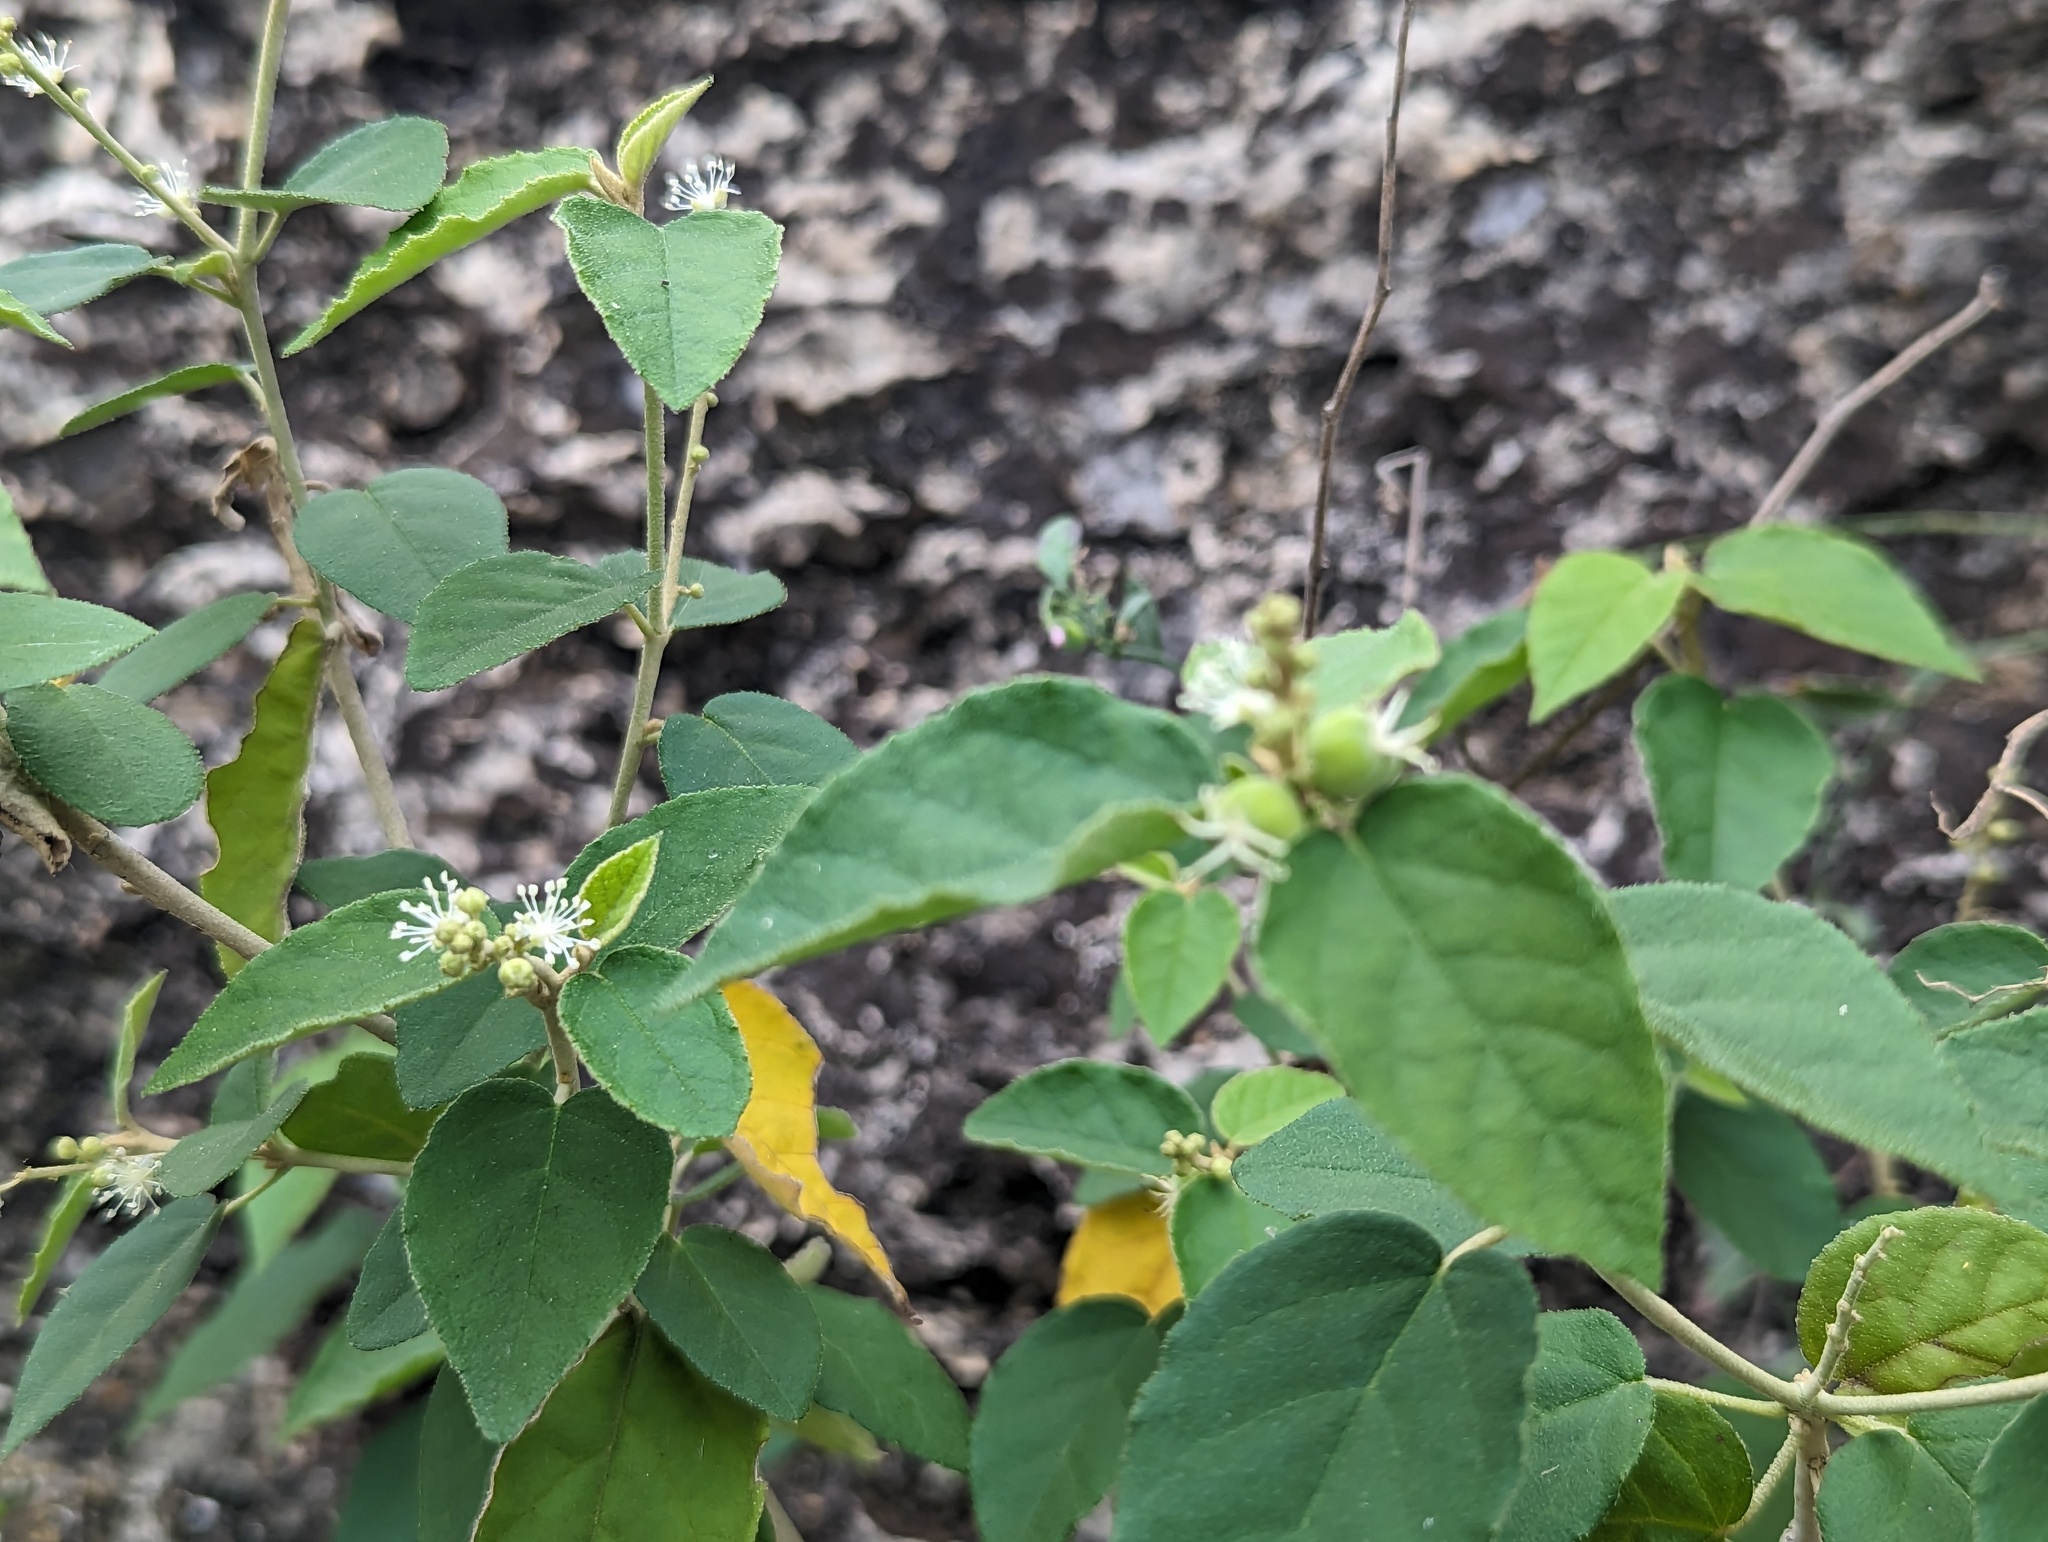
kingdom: Plantae
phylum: Tracheophyta
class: Magnoliopsida
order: Malpighiales
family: Euphorbiaceae
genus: Croton
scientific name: Croton fruticulosus
